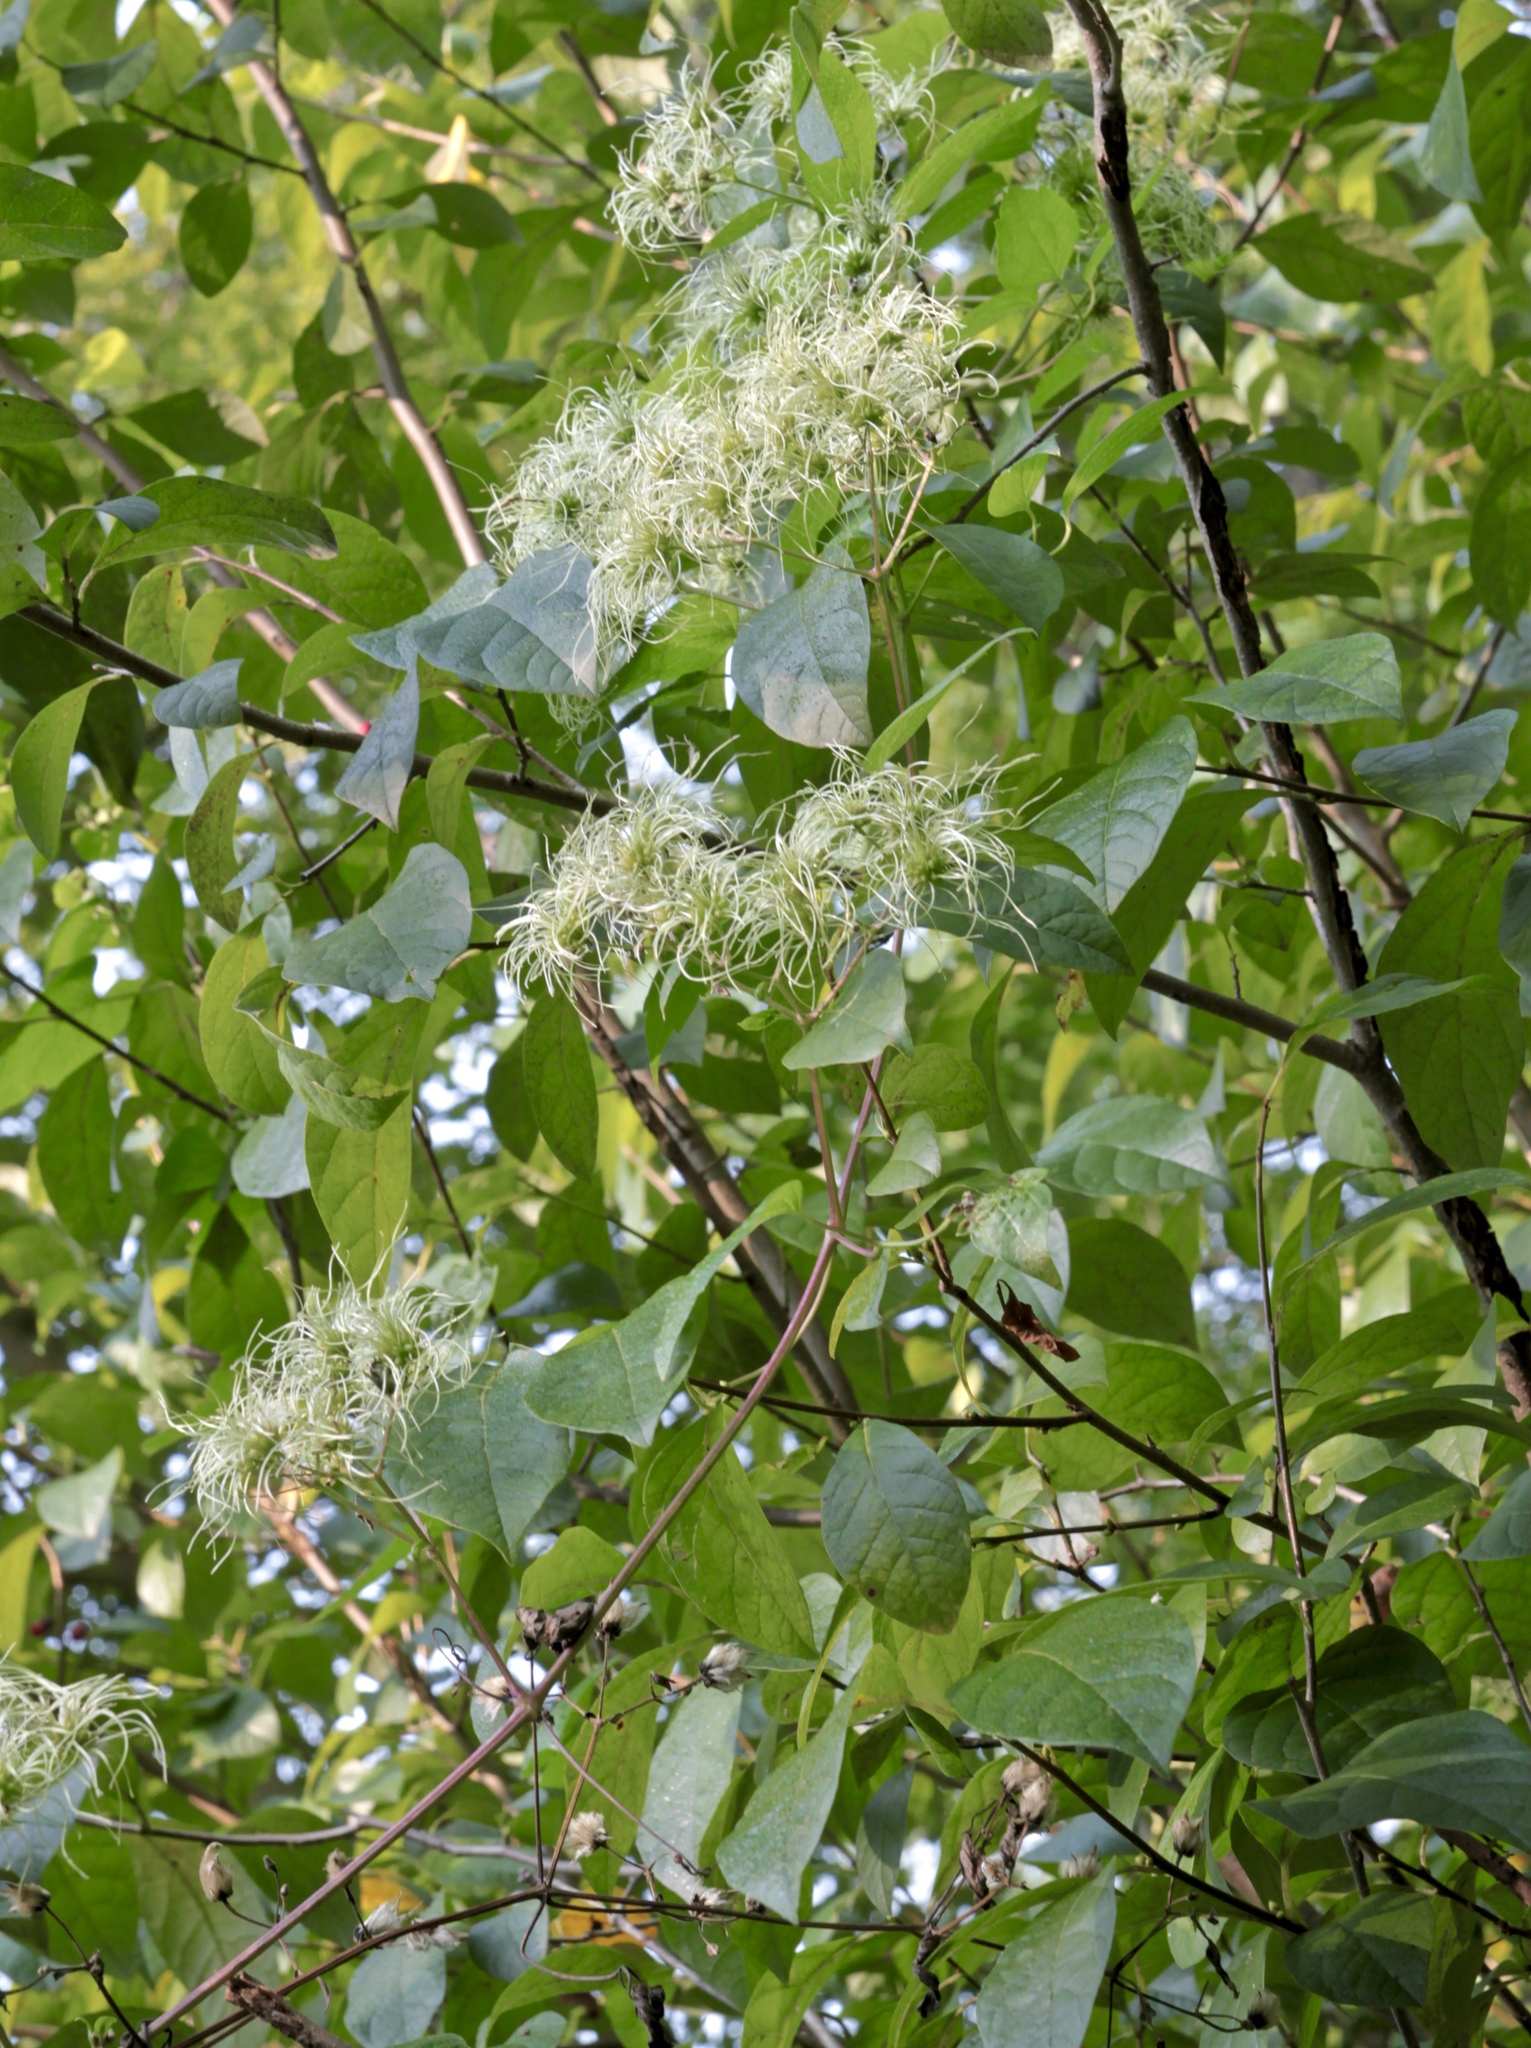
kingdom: Plantae
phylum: Tracheophyta
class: Magnoliopsida
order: Ranunculales
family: Ranunculaceae
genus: Clematis
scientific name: Clematis virginiana
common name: Virgin's-bower
